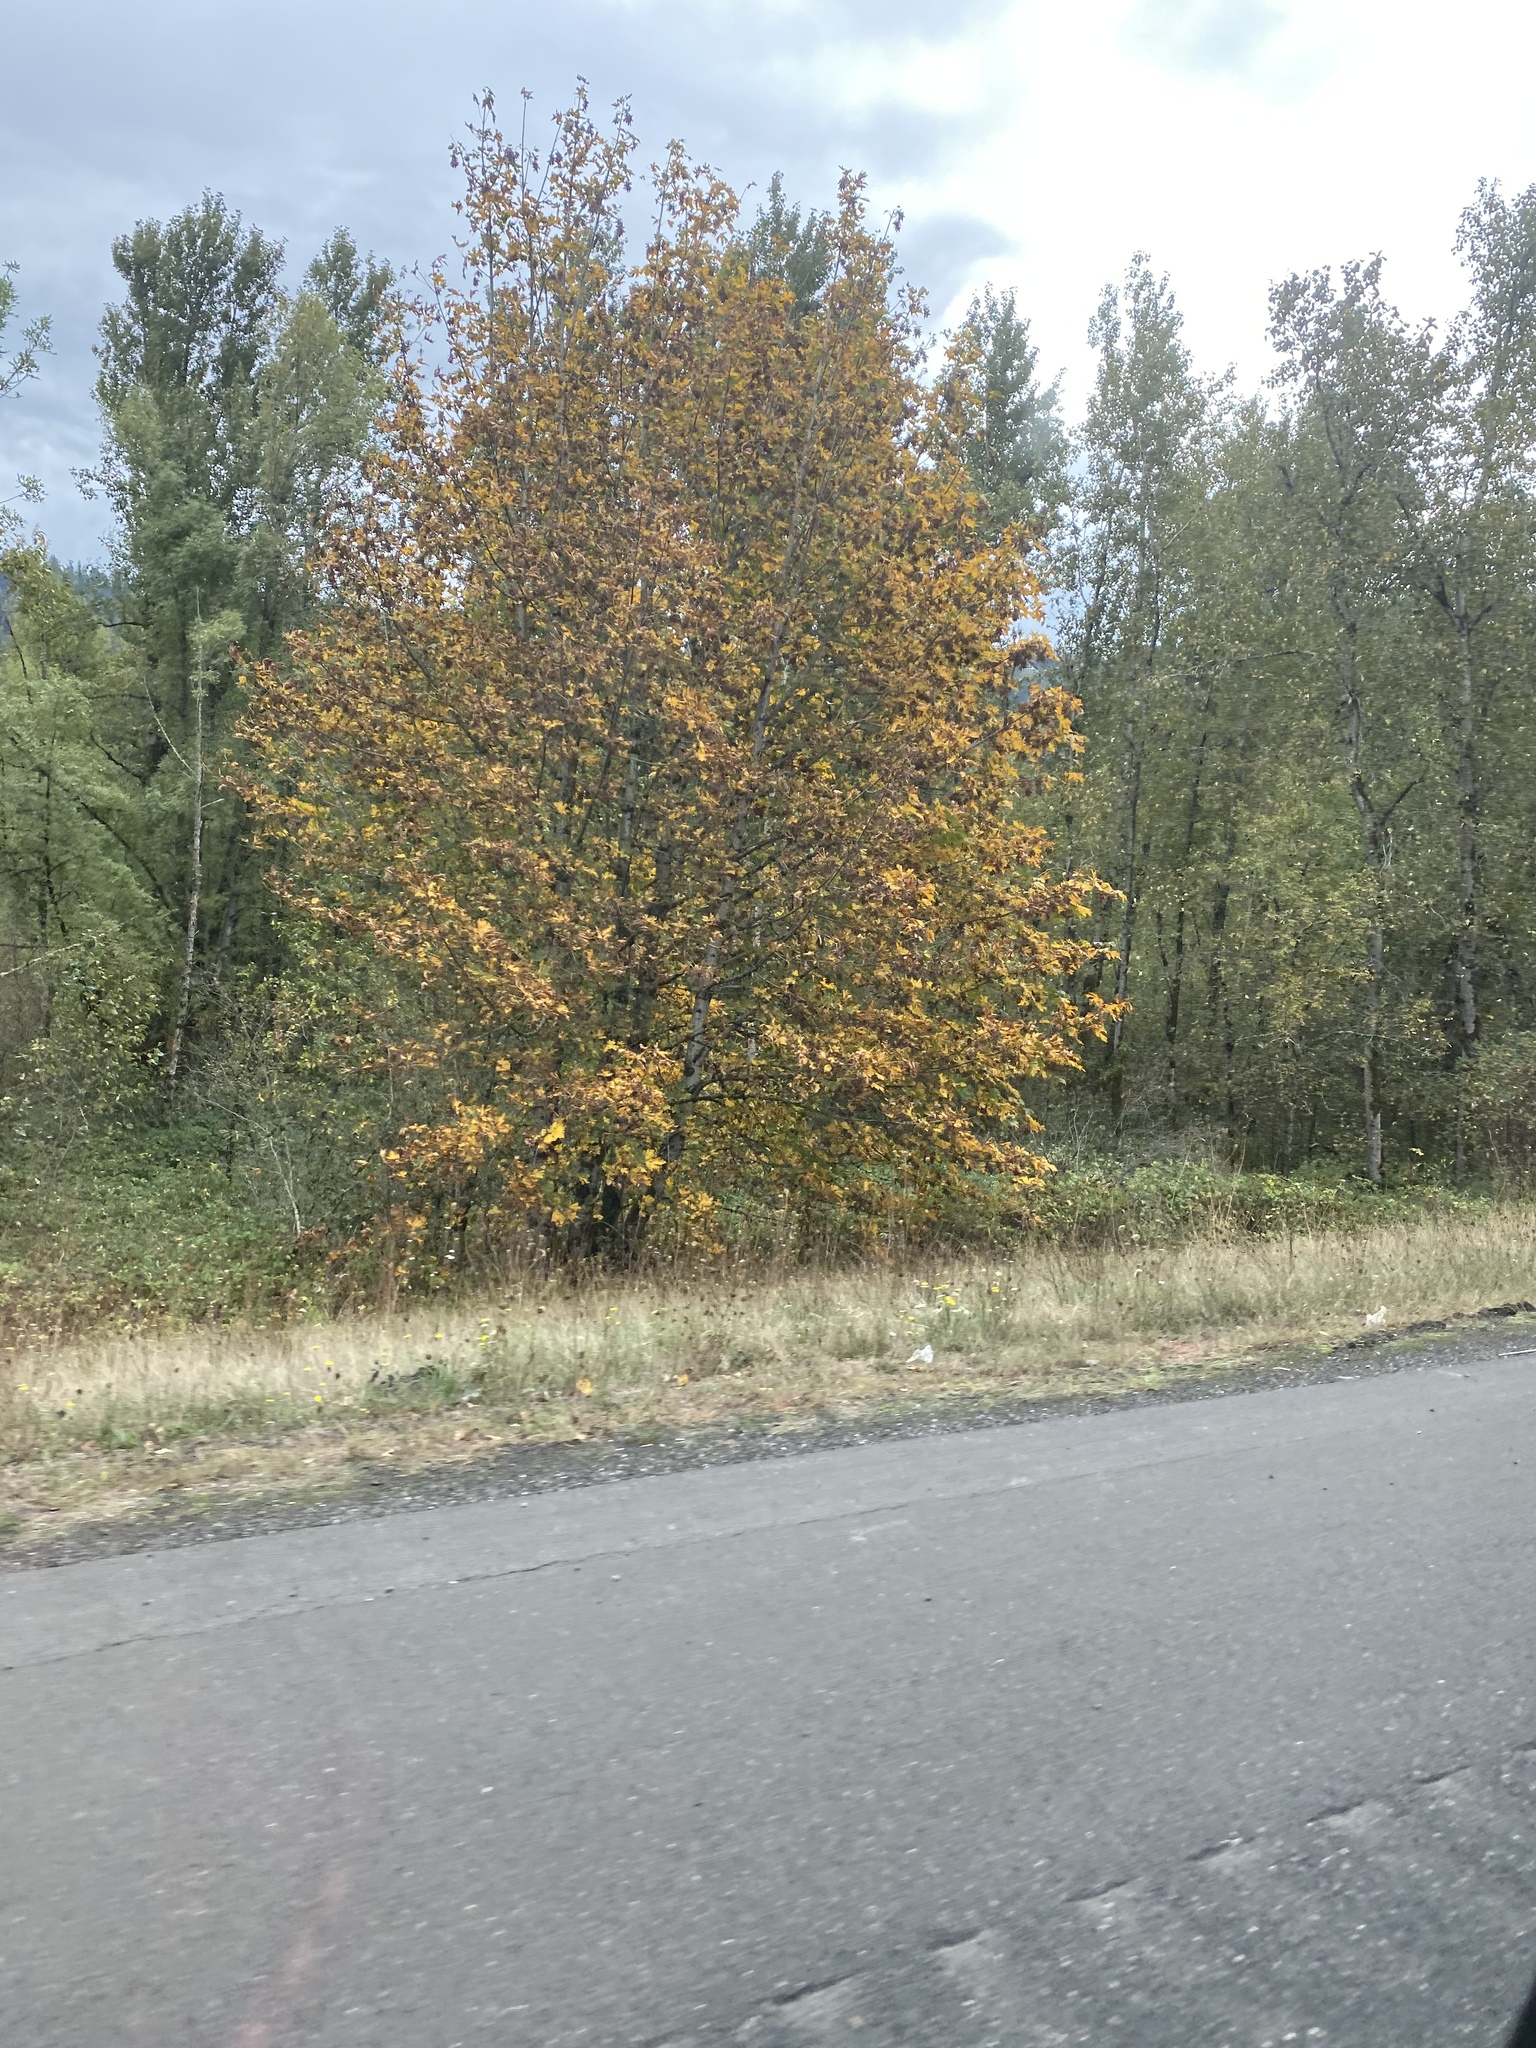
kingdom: Plantae
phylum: Tracheophyta
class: Magnoliopsida
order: Sapindales
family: Sapindaceae
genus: Acer
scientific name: Acer macrophyllum
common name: Oregon maple
